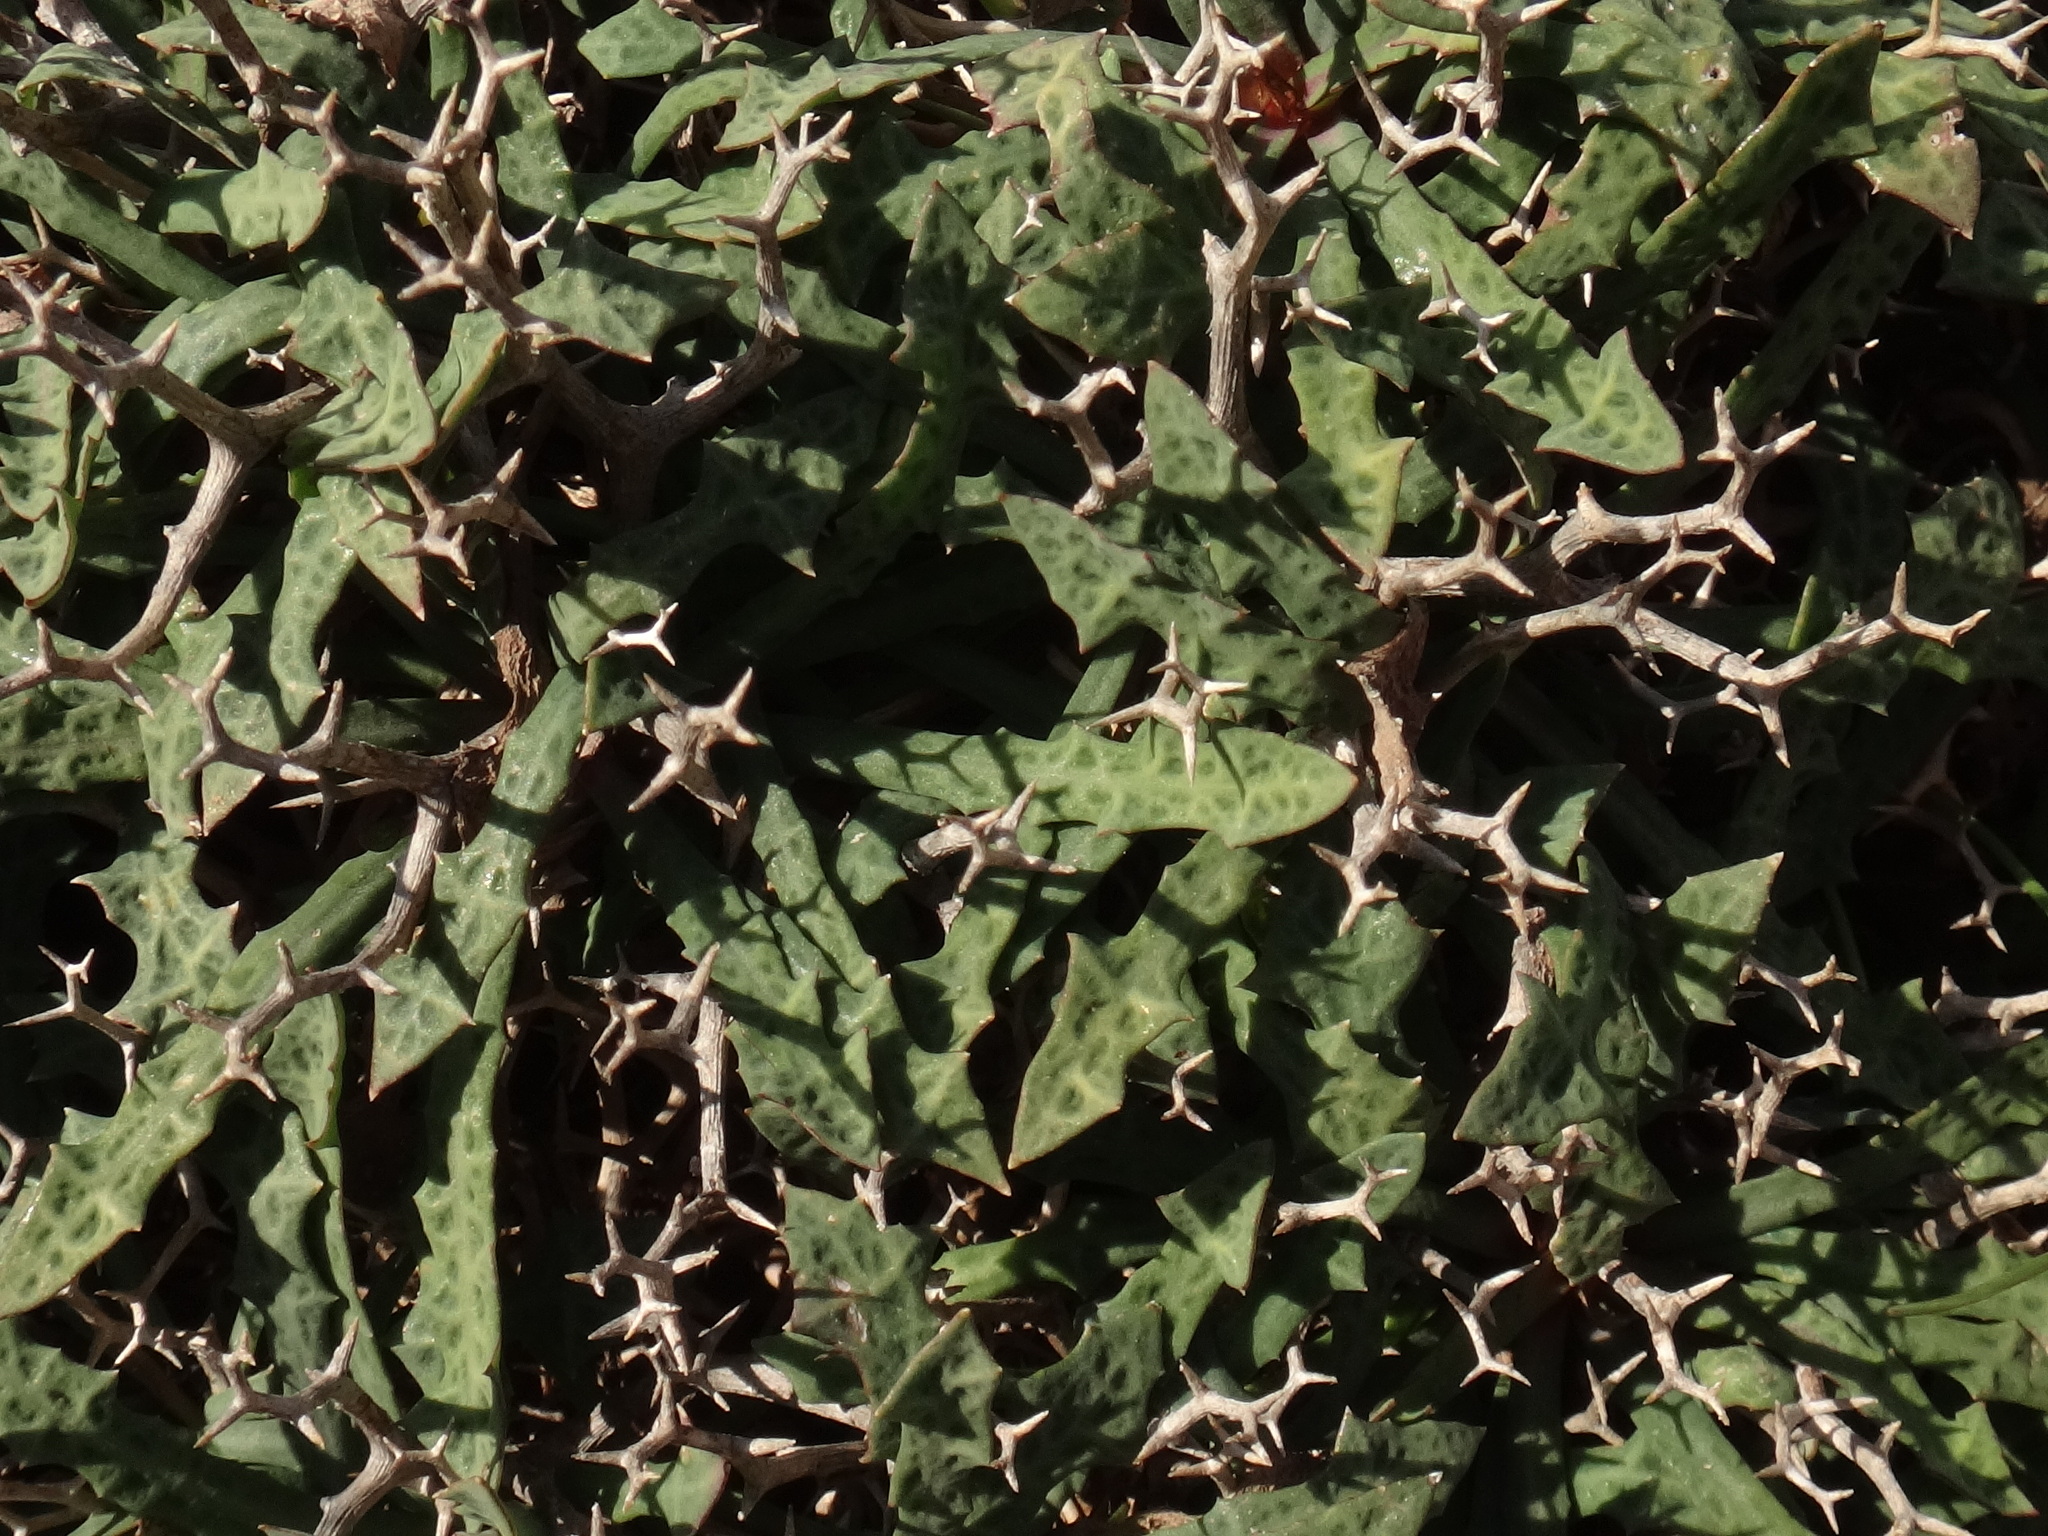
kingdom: Plantae
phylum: Tracheophyta
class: Magnoliopsida
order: Asterales
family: Asteraceae
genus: Launaea
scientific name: Launaea cervicornis
